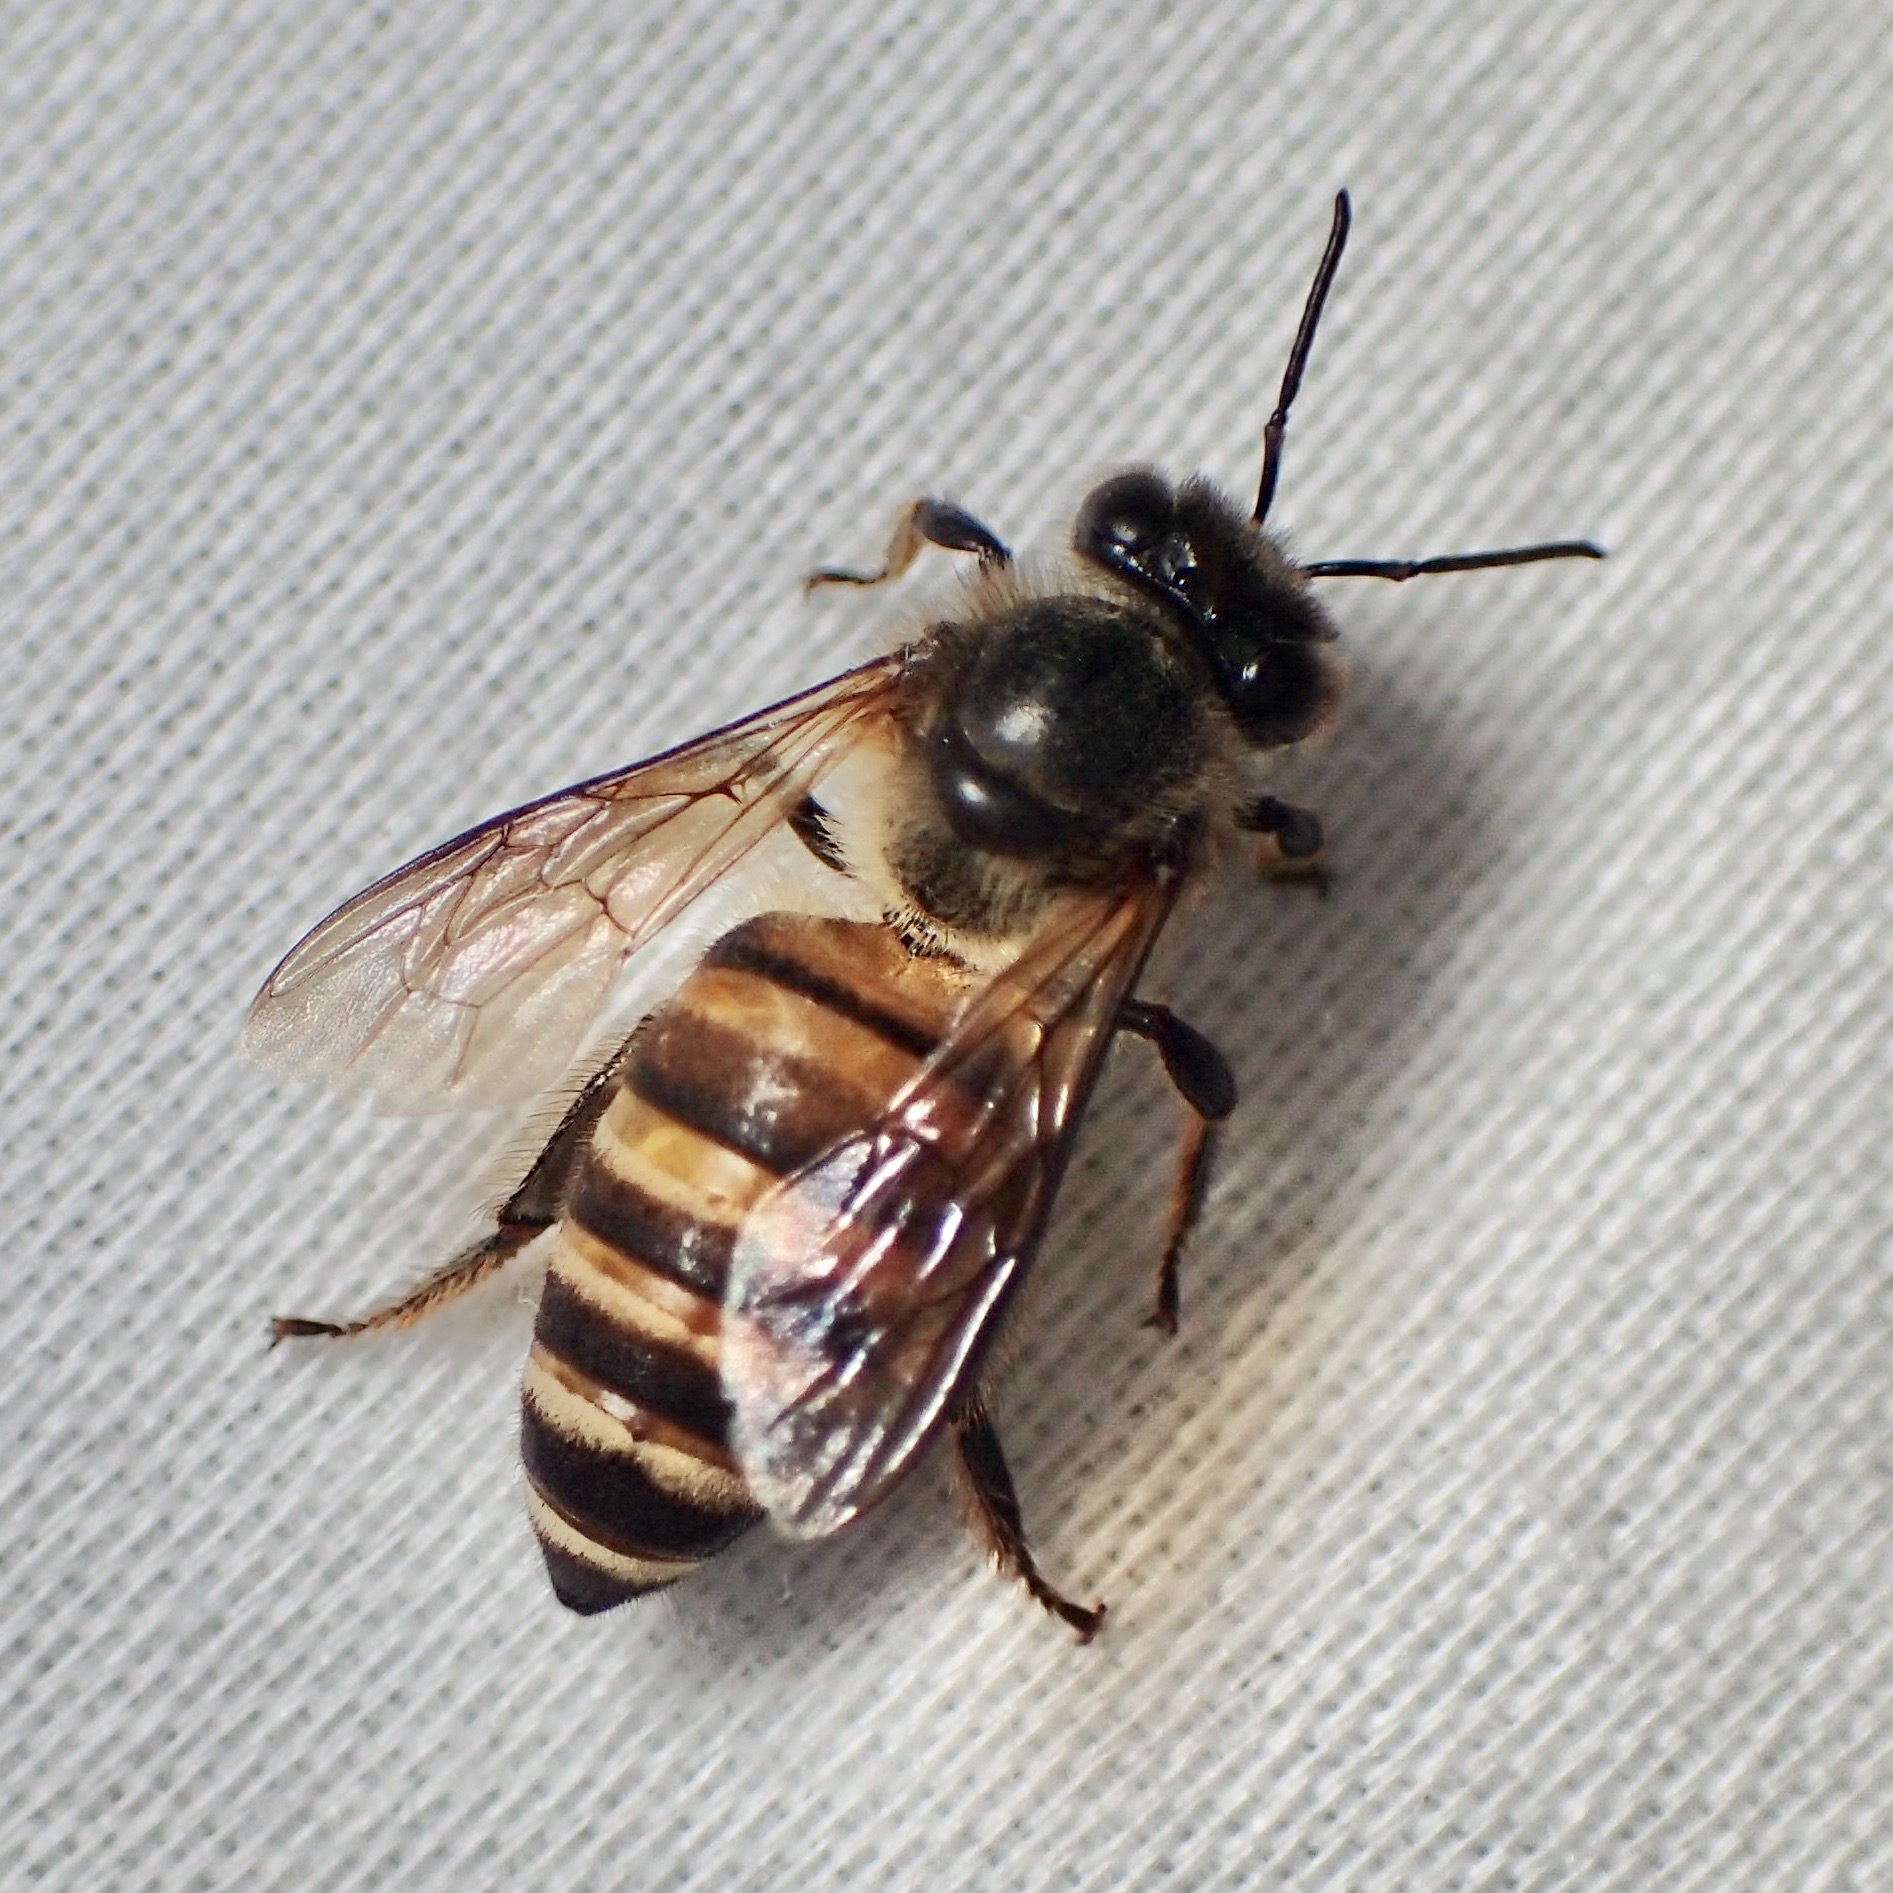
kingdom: Animalia
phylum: Arthropoda
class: Insecta
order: Hymenoptera
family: Apidae
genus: Apis
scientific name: Apis cerana
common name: Honey bee
